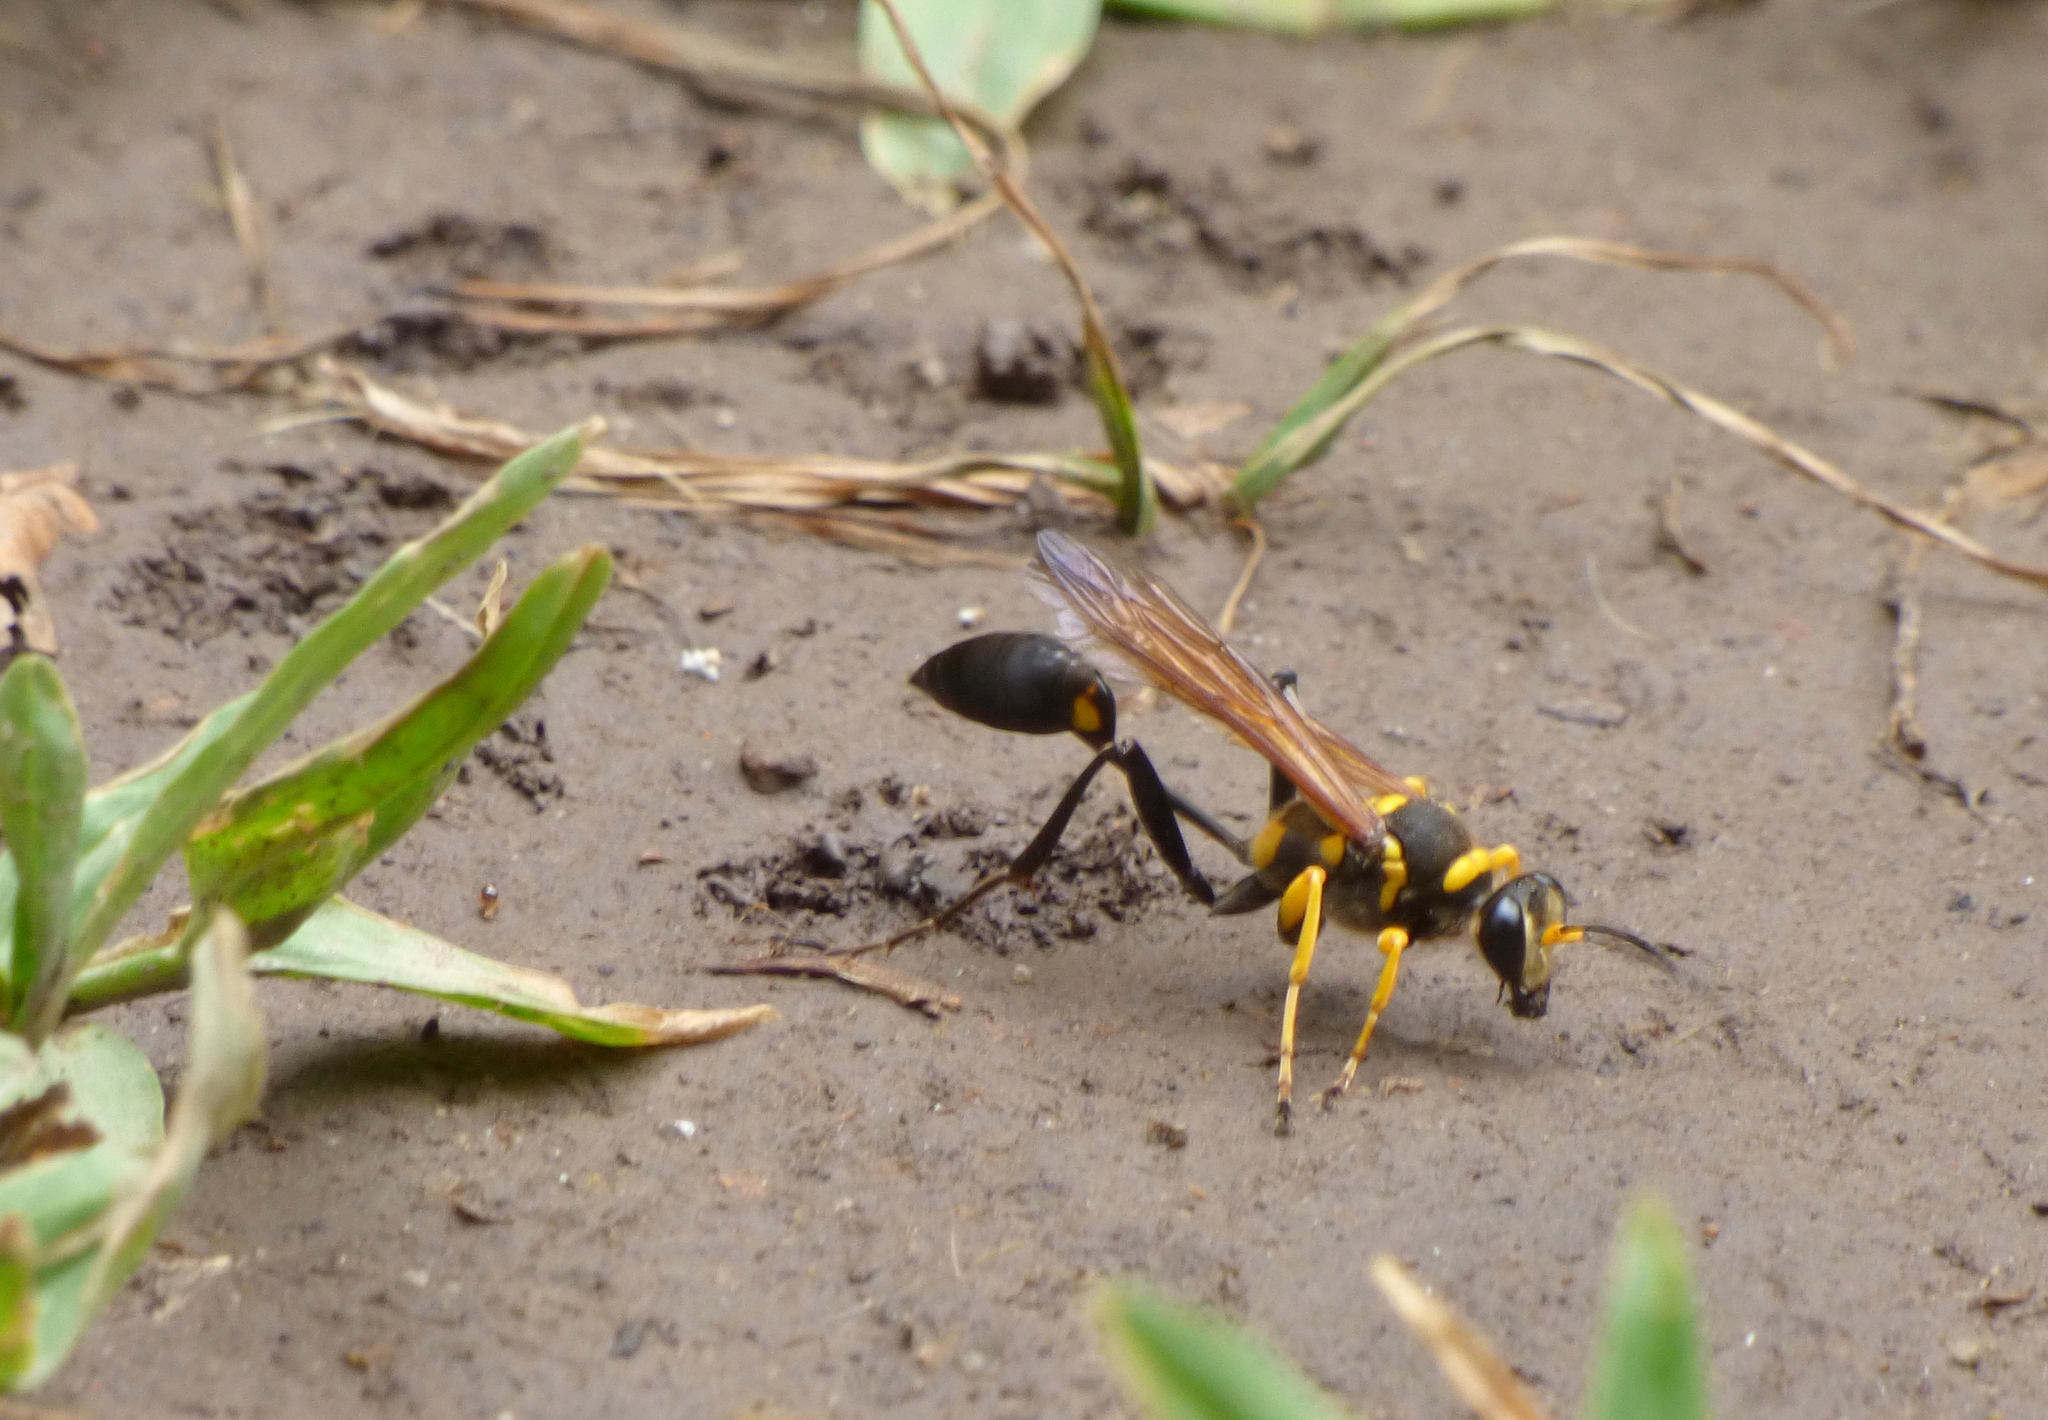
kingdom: Animalia
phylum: Arthropoda
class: Insecta
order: Hymenoptera
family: Sphecidae
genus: Sceliphron
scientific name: Sceliphron asiaticum
